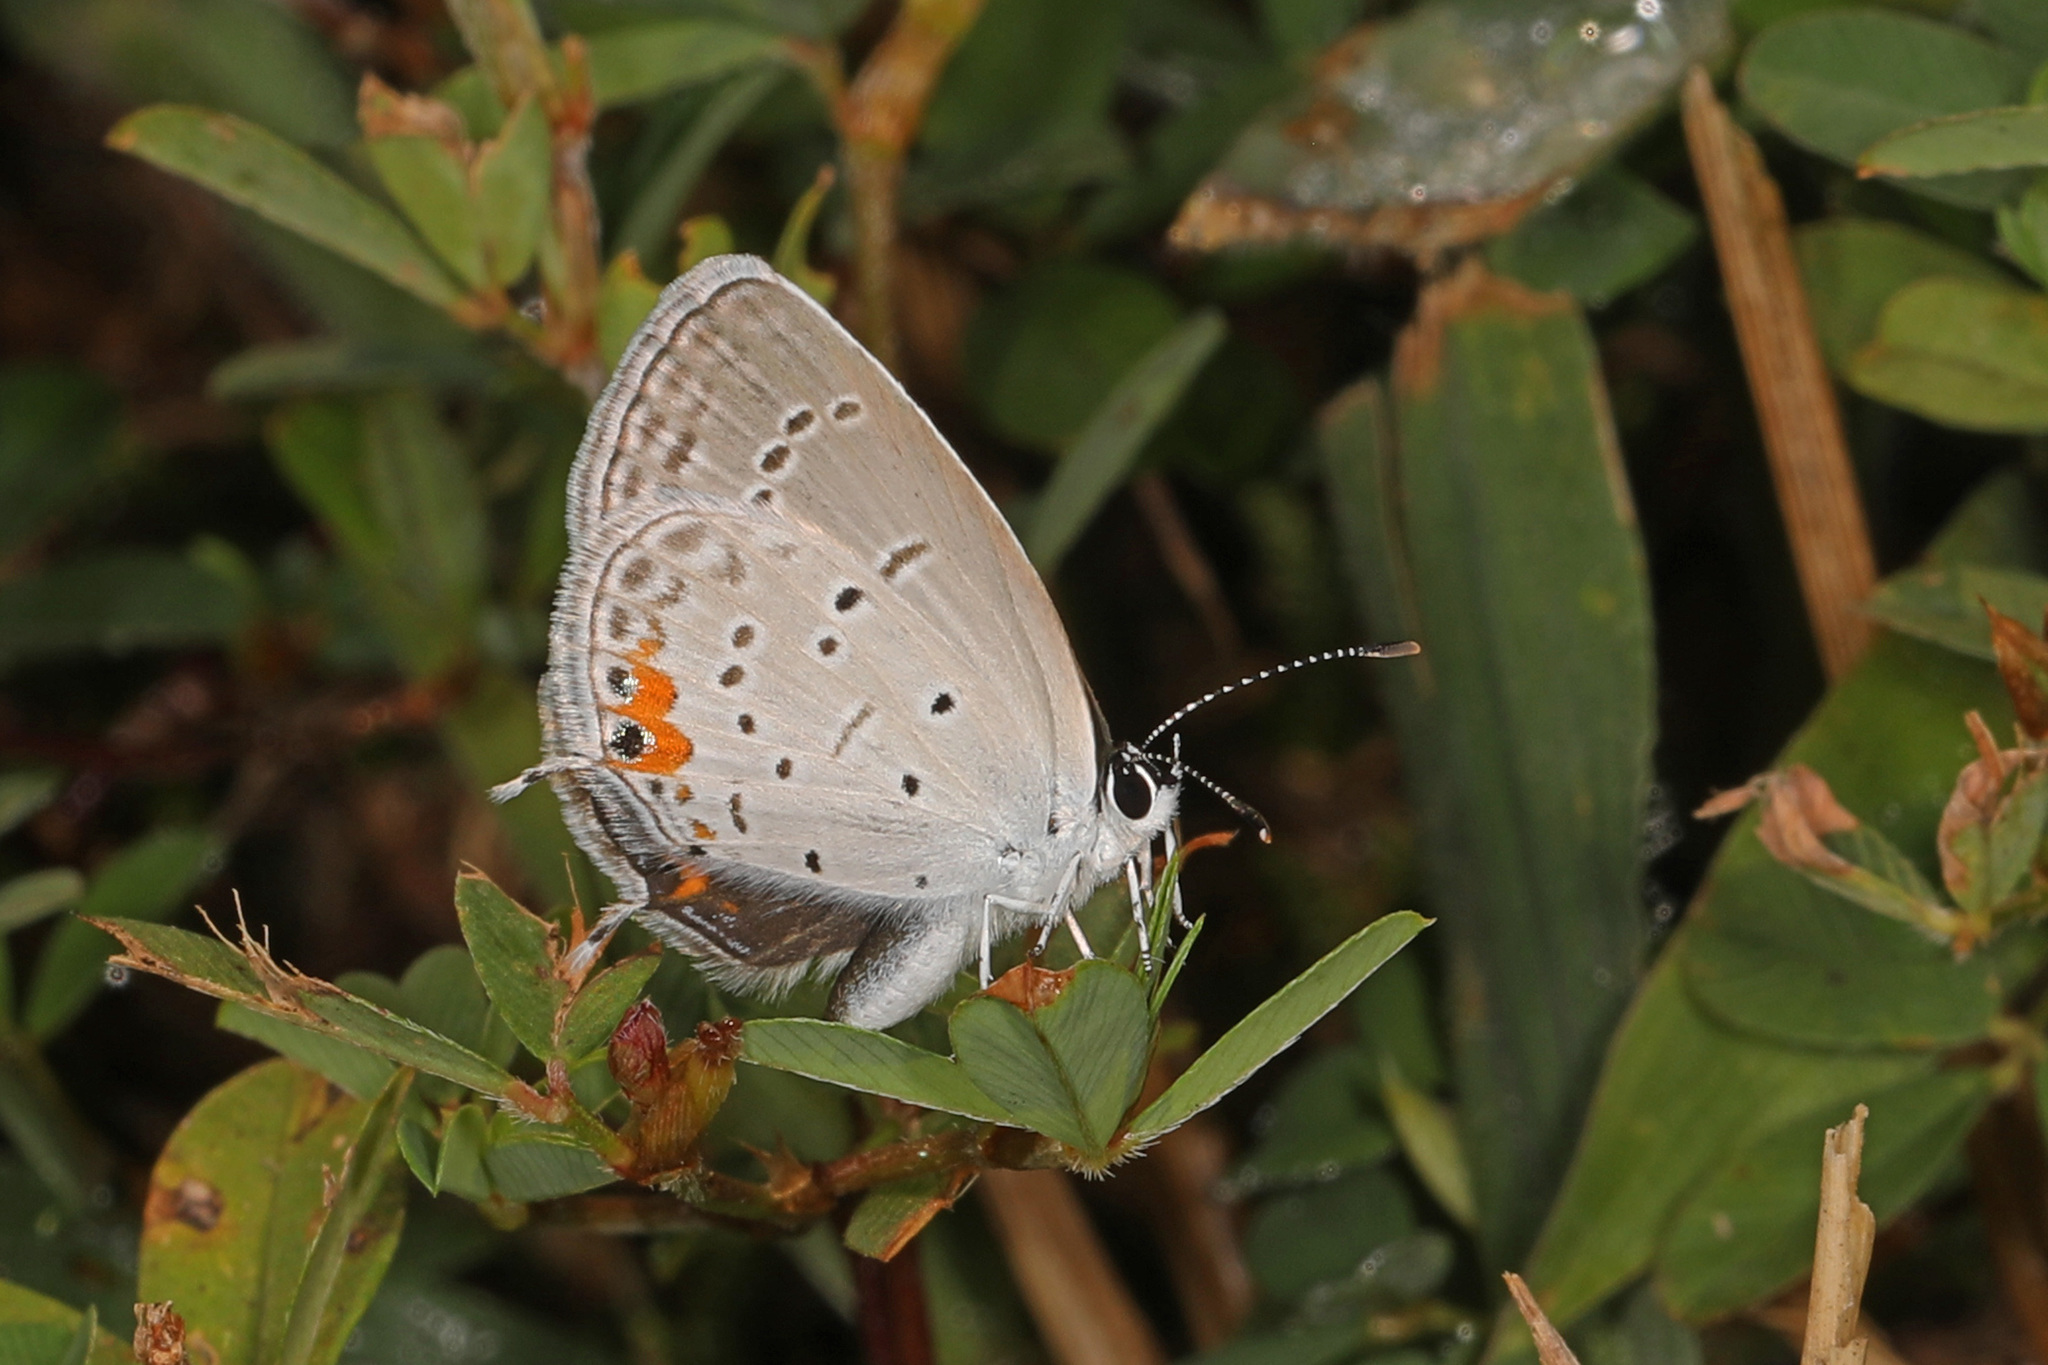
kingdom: Animalia
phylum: Arthropoda
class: Insecta
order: Lepidoptera
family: Lycaenidae
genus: Elkalyce
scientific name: Elkalyce comyntas
